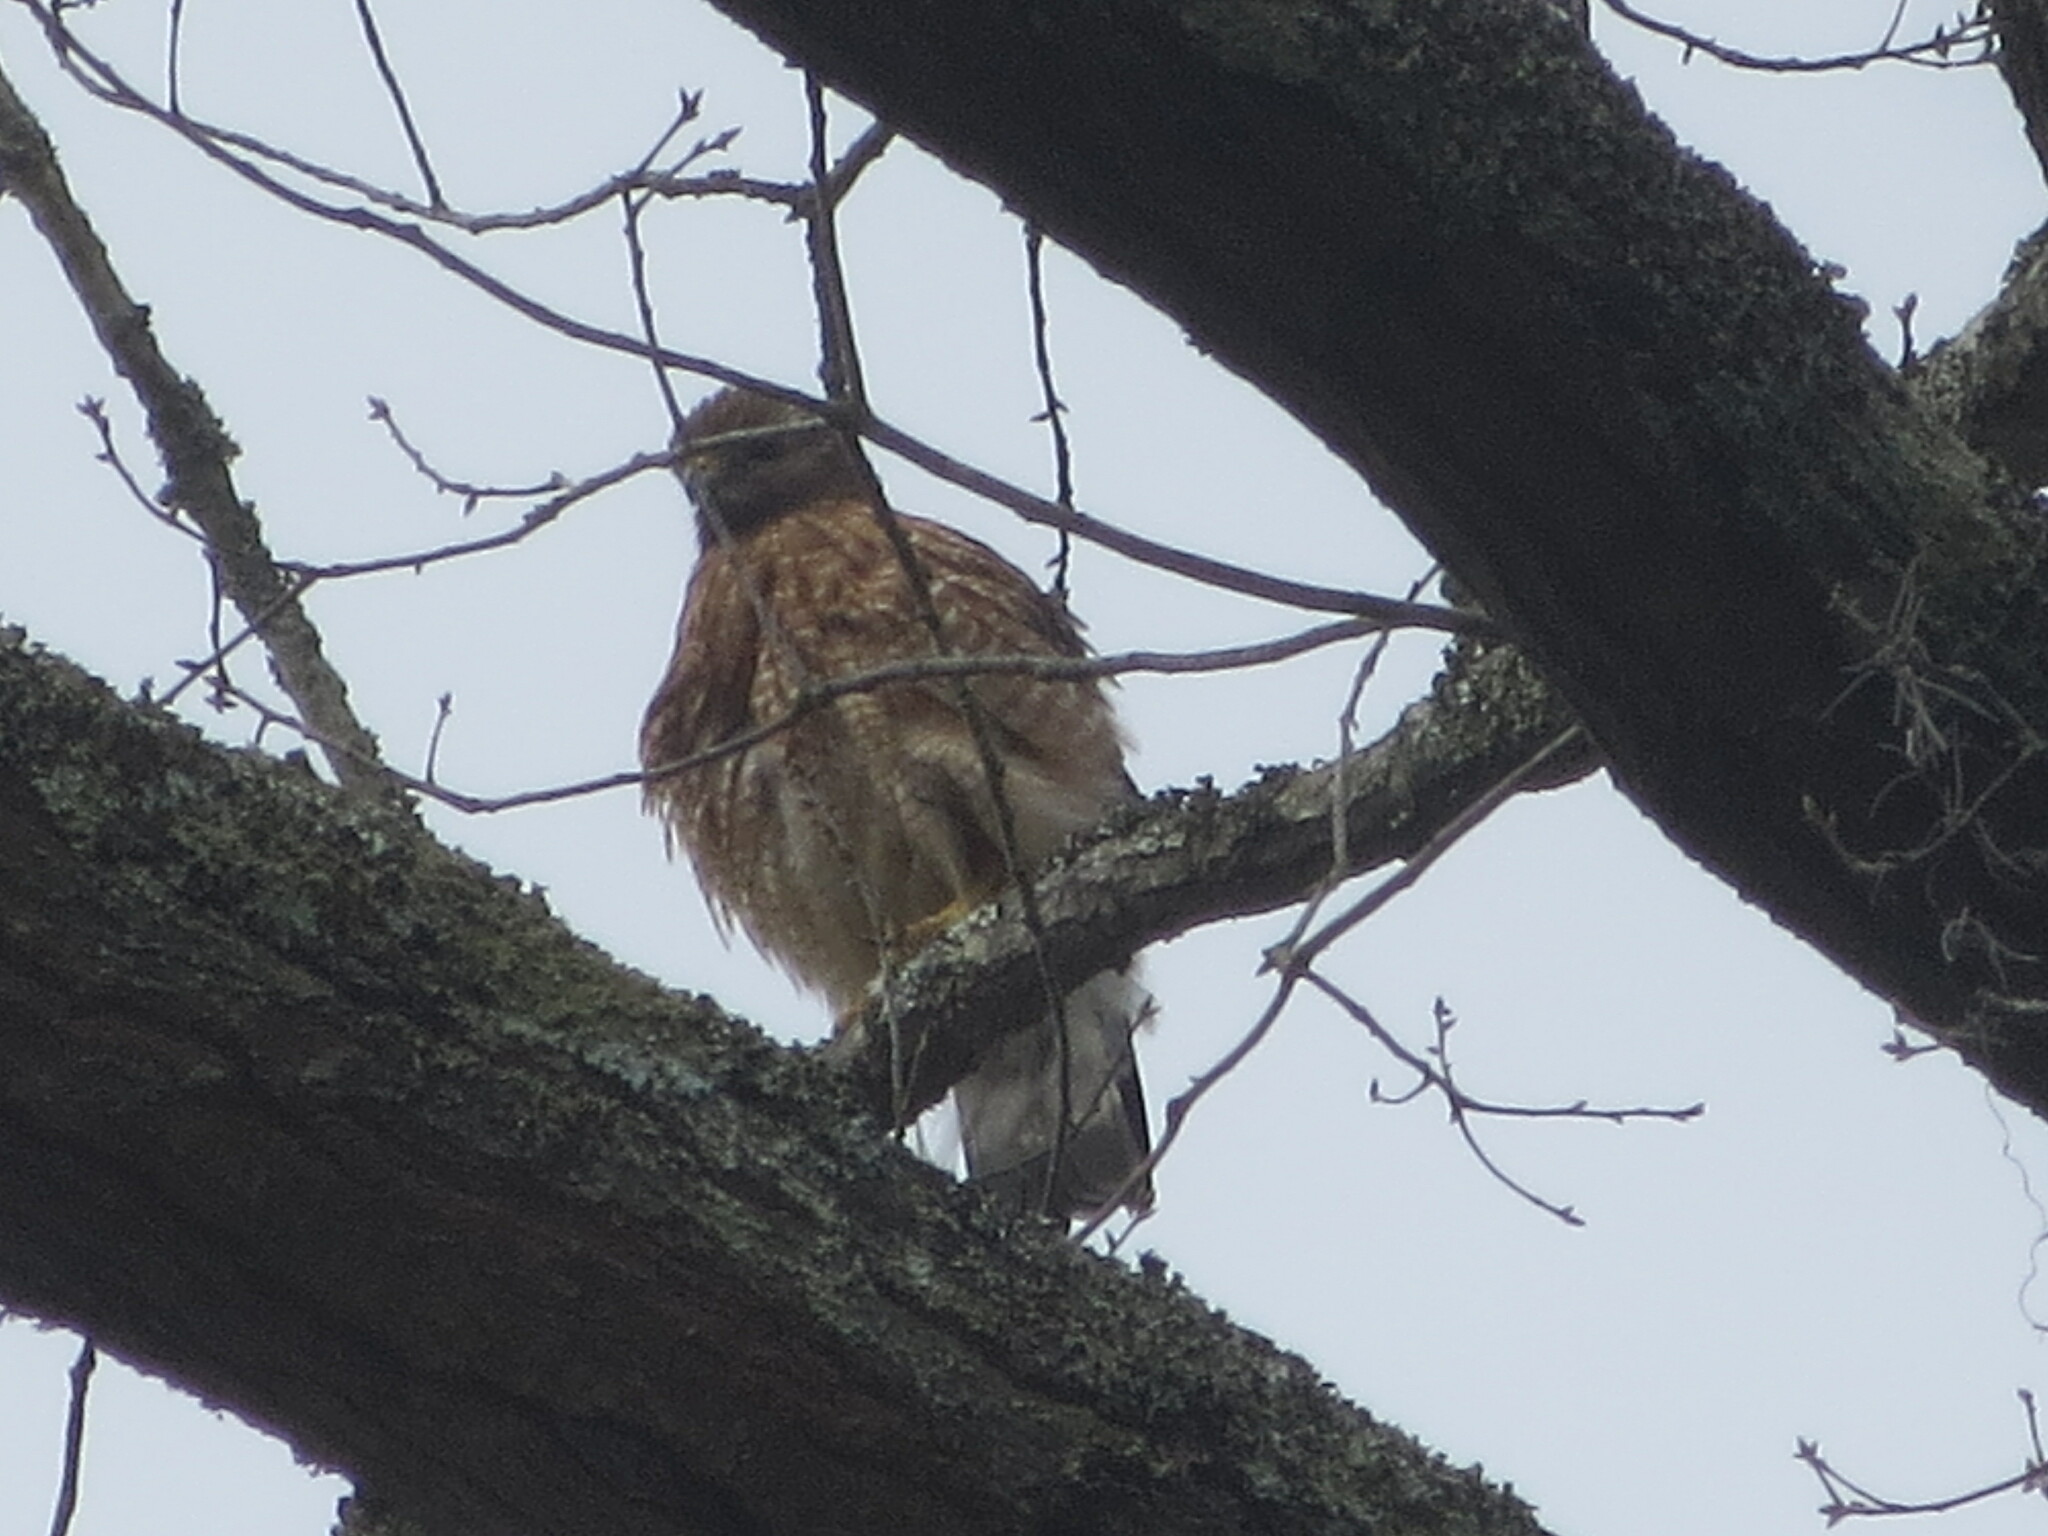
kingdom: Animalia
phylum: Chordata
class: Aves
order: Accipitriformes
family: Accipitridae
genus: Buteo
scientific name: Buteo lineatus
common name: Red-shouldered hawk
